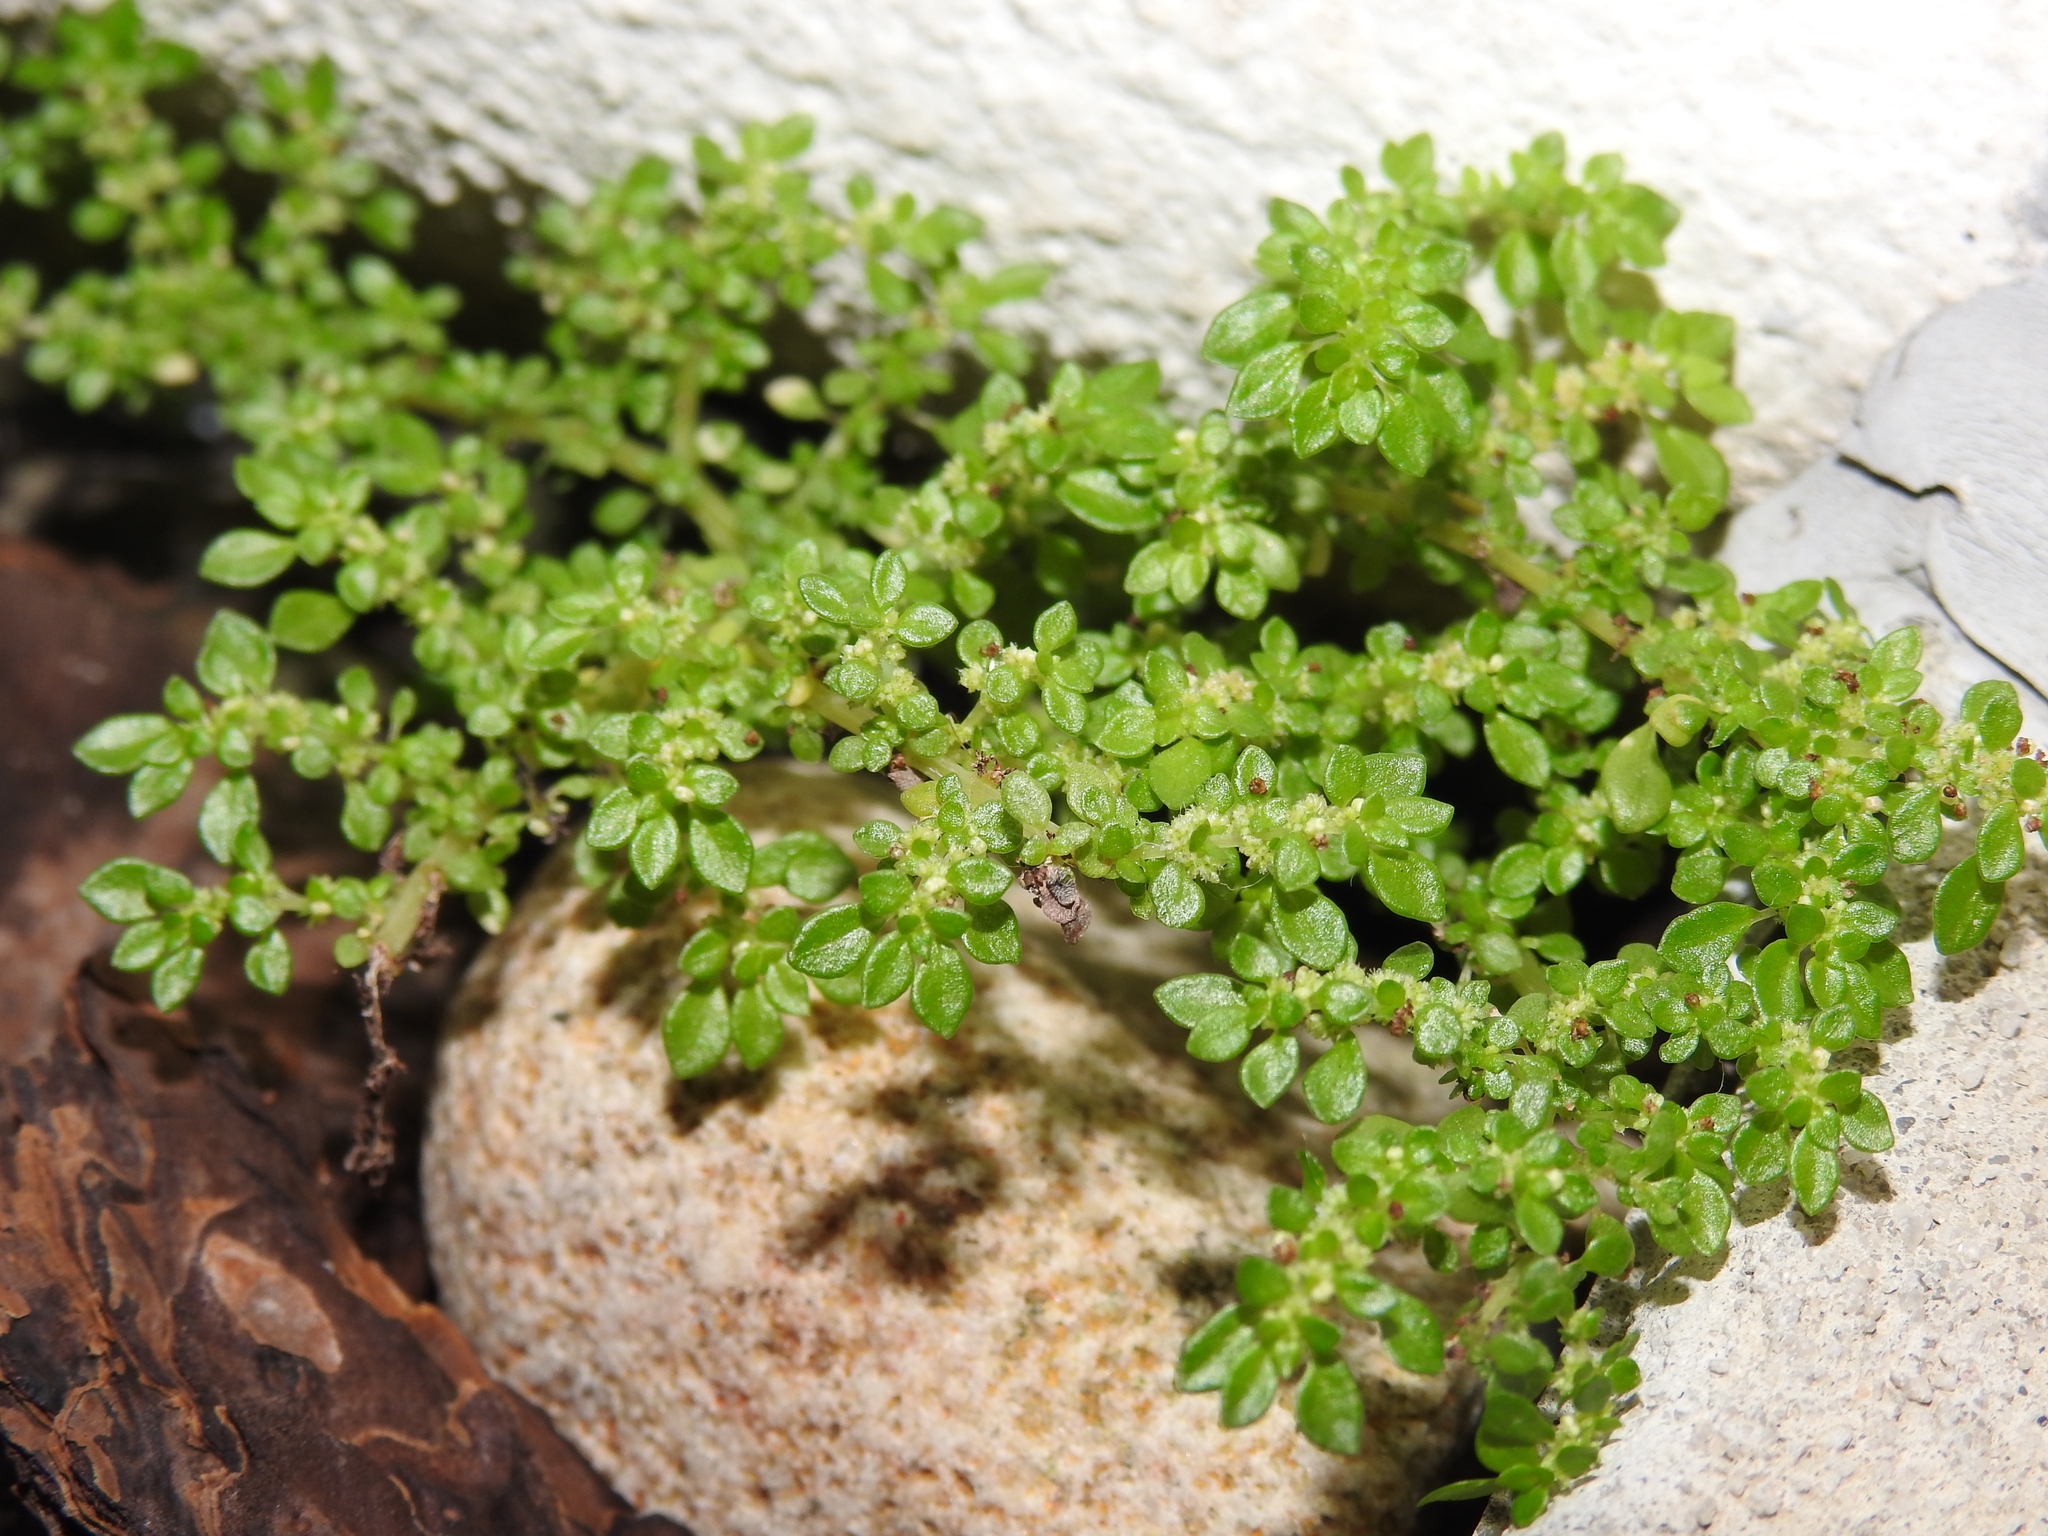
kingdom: Plantae
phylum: Tracheophyta
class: Magnoliopsida
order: Rosales
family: Urticaceae
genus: Pilea
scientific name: Pilea microphylla
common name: Artillery-plant
